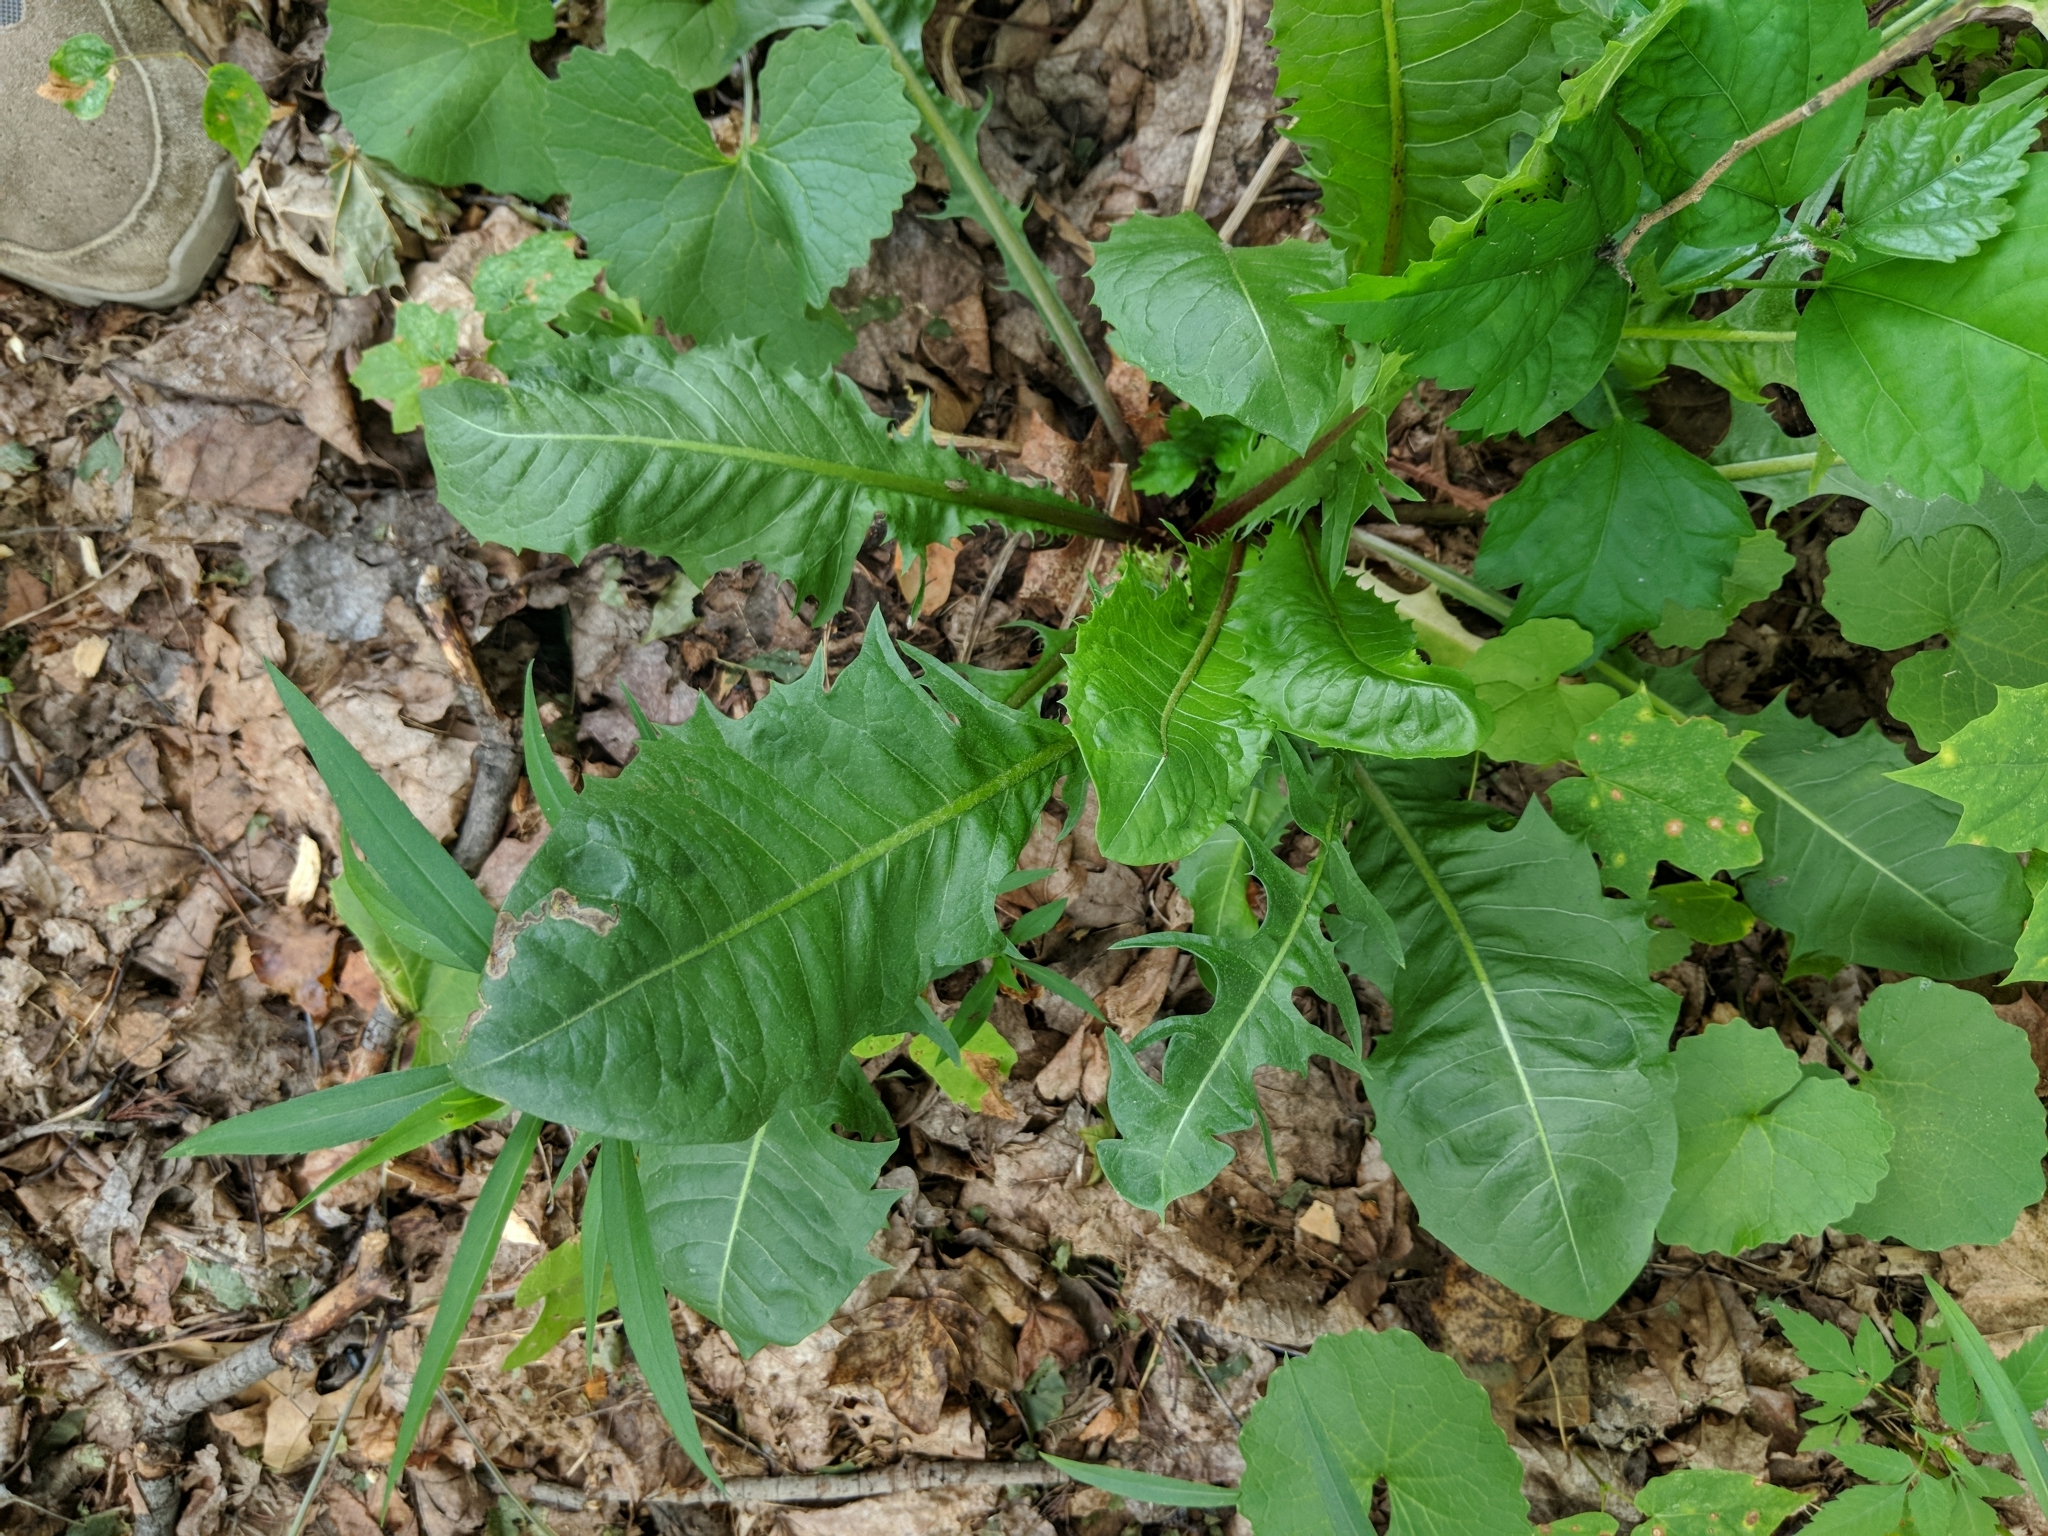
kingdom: Plantae
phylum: Tracheophyta
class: Magnoliopsida
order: Asterales
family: Asteraceae
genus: Taraxacum
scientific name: Taraxacum officinale
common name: Common dandelion
